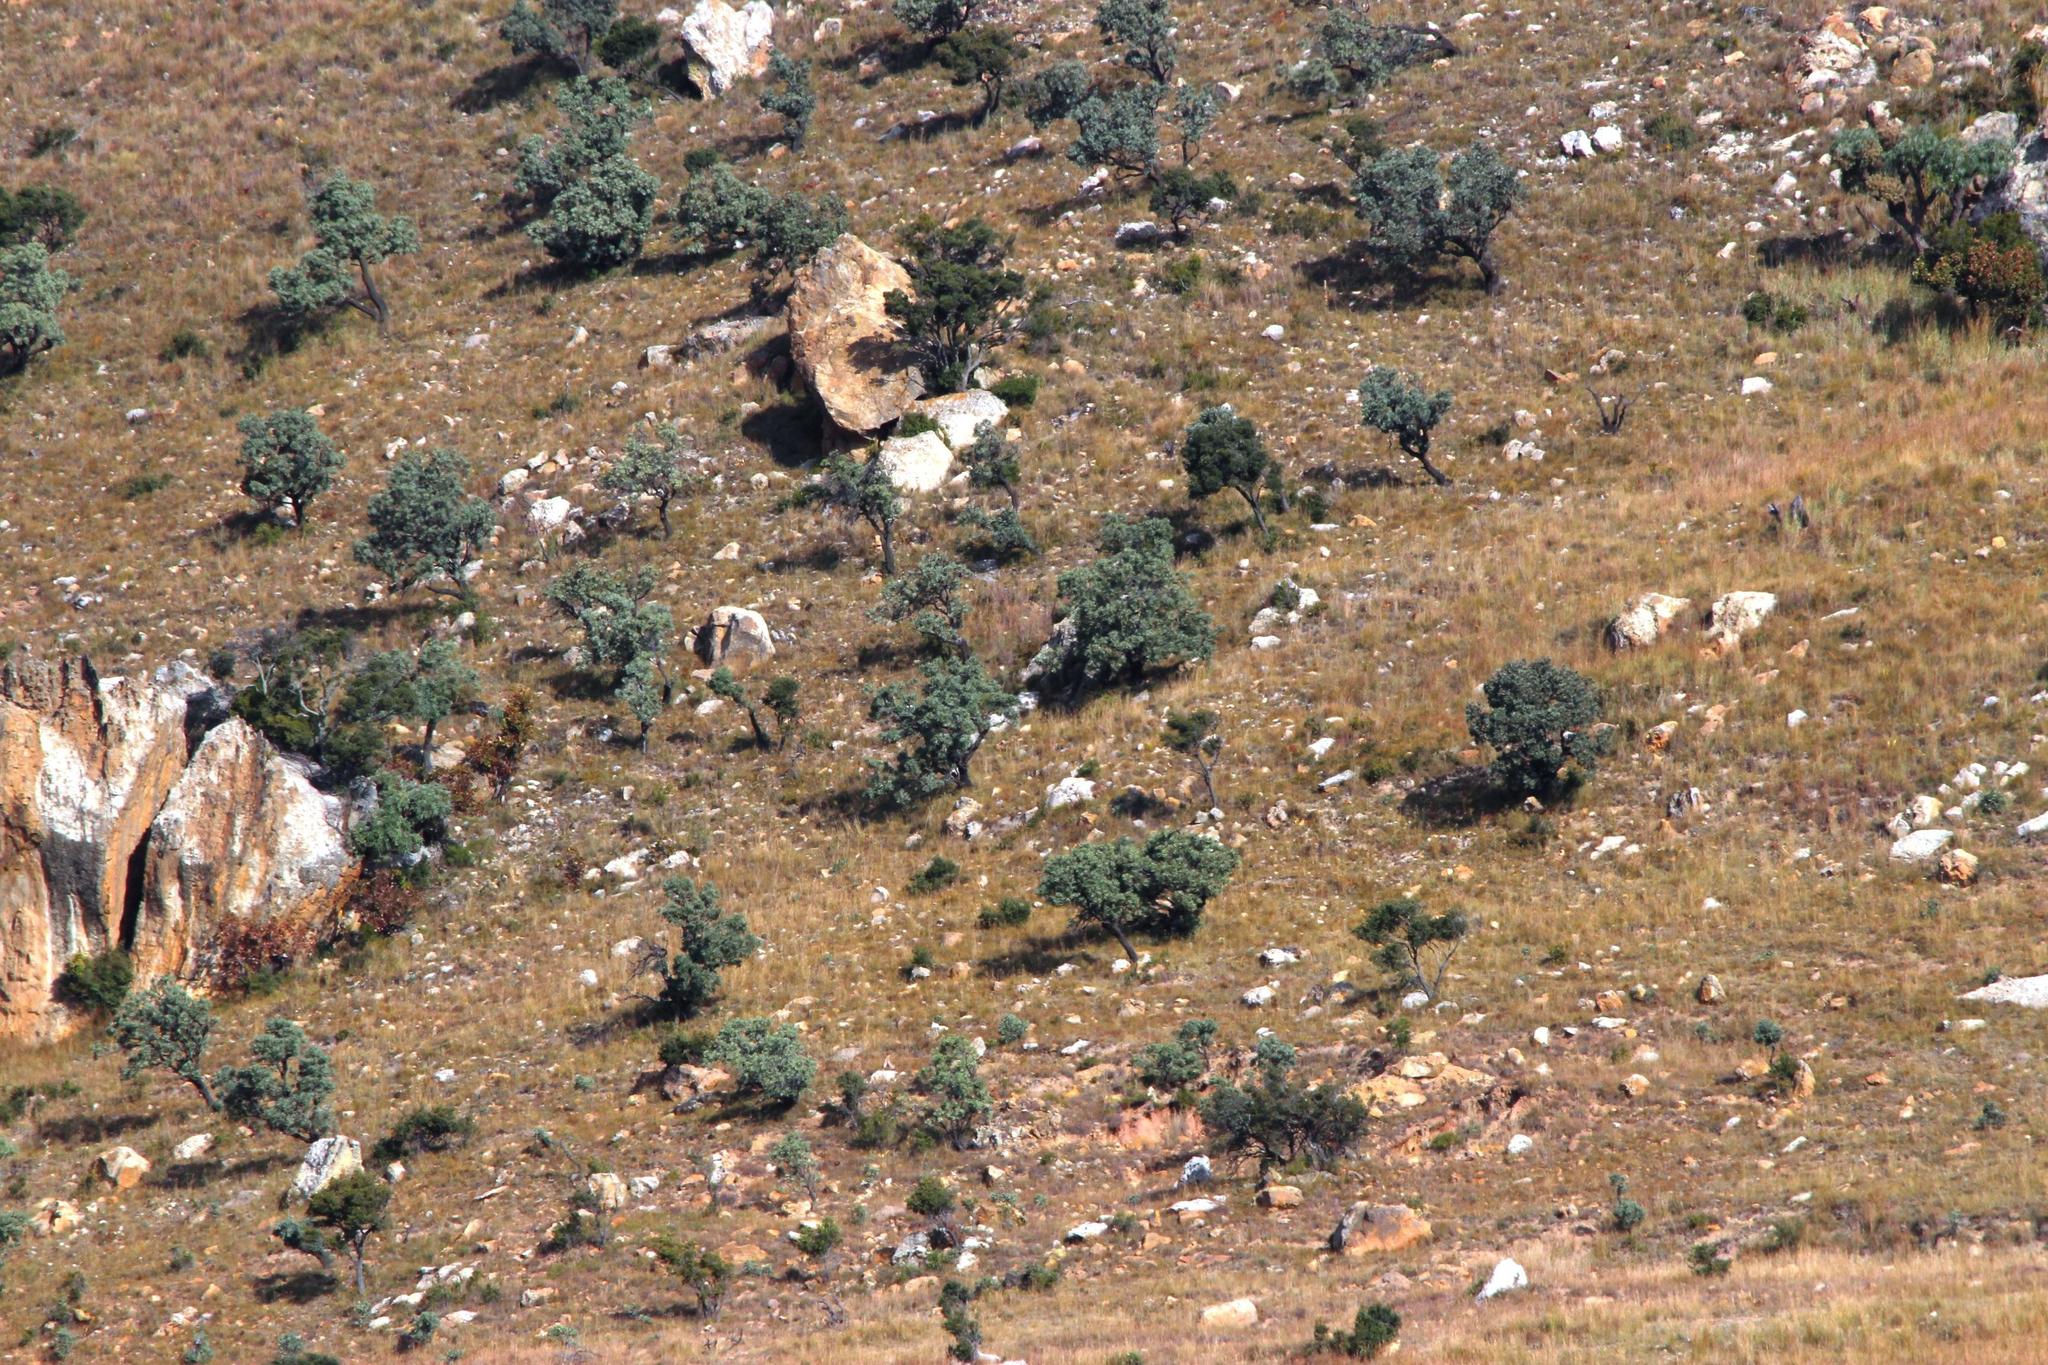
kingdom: Plantae
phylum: Tracheophyta
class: Magnoliopsida
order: Proteales
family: Proteaceae
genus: Protea
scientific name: Protea caffra
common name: Common sugarbush
